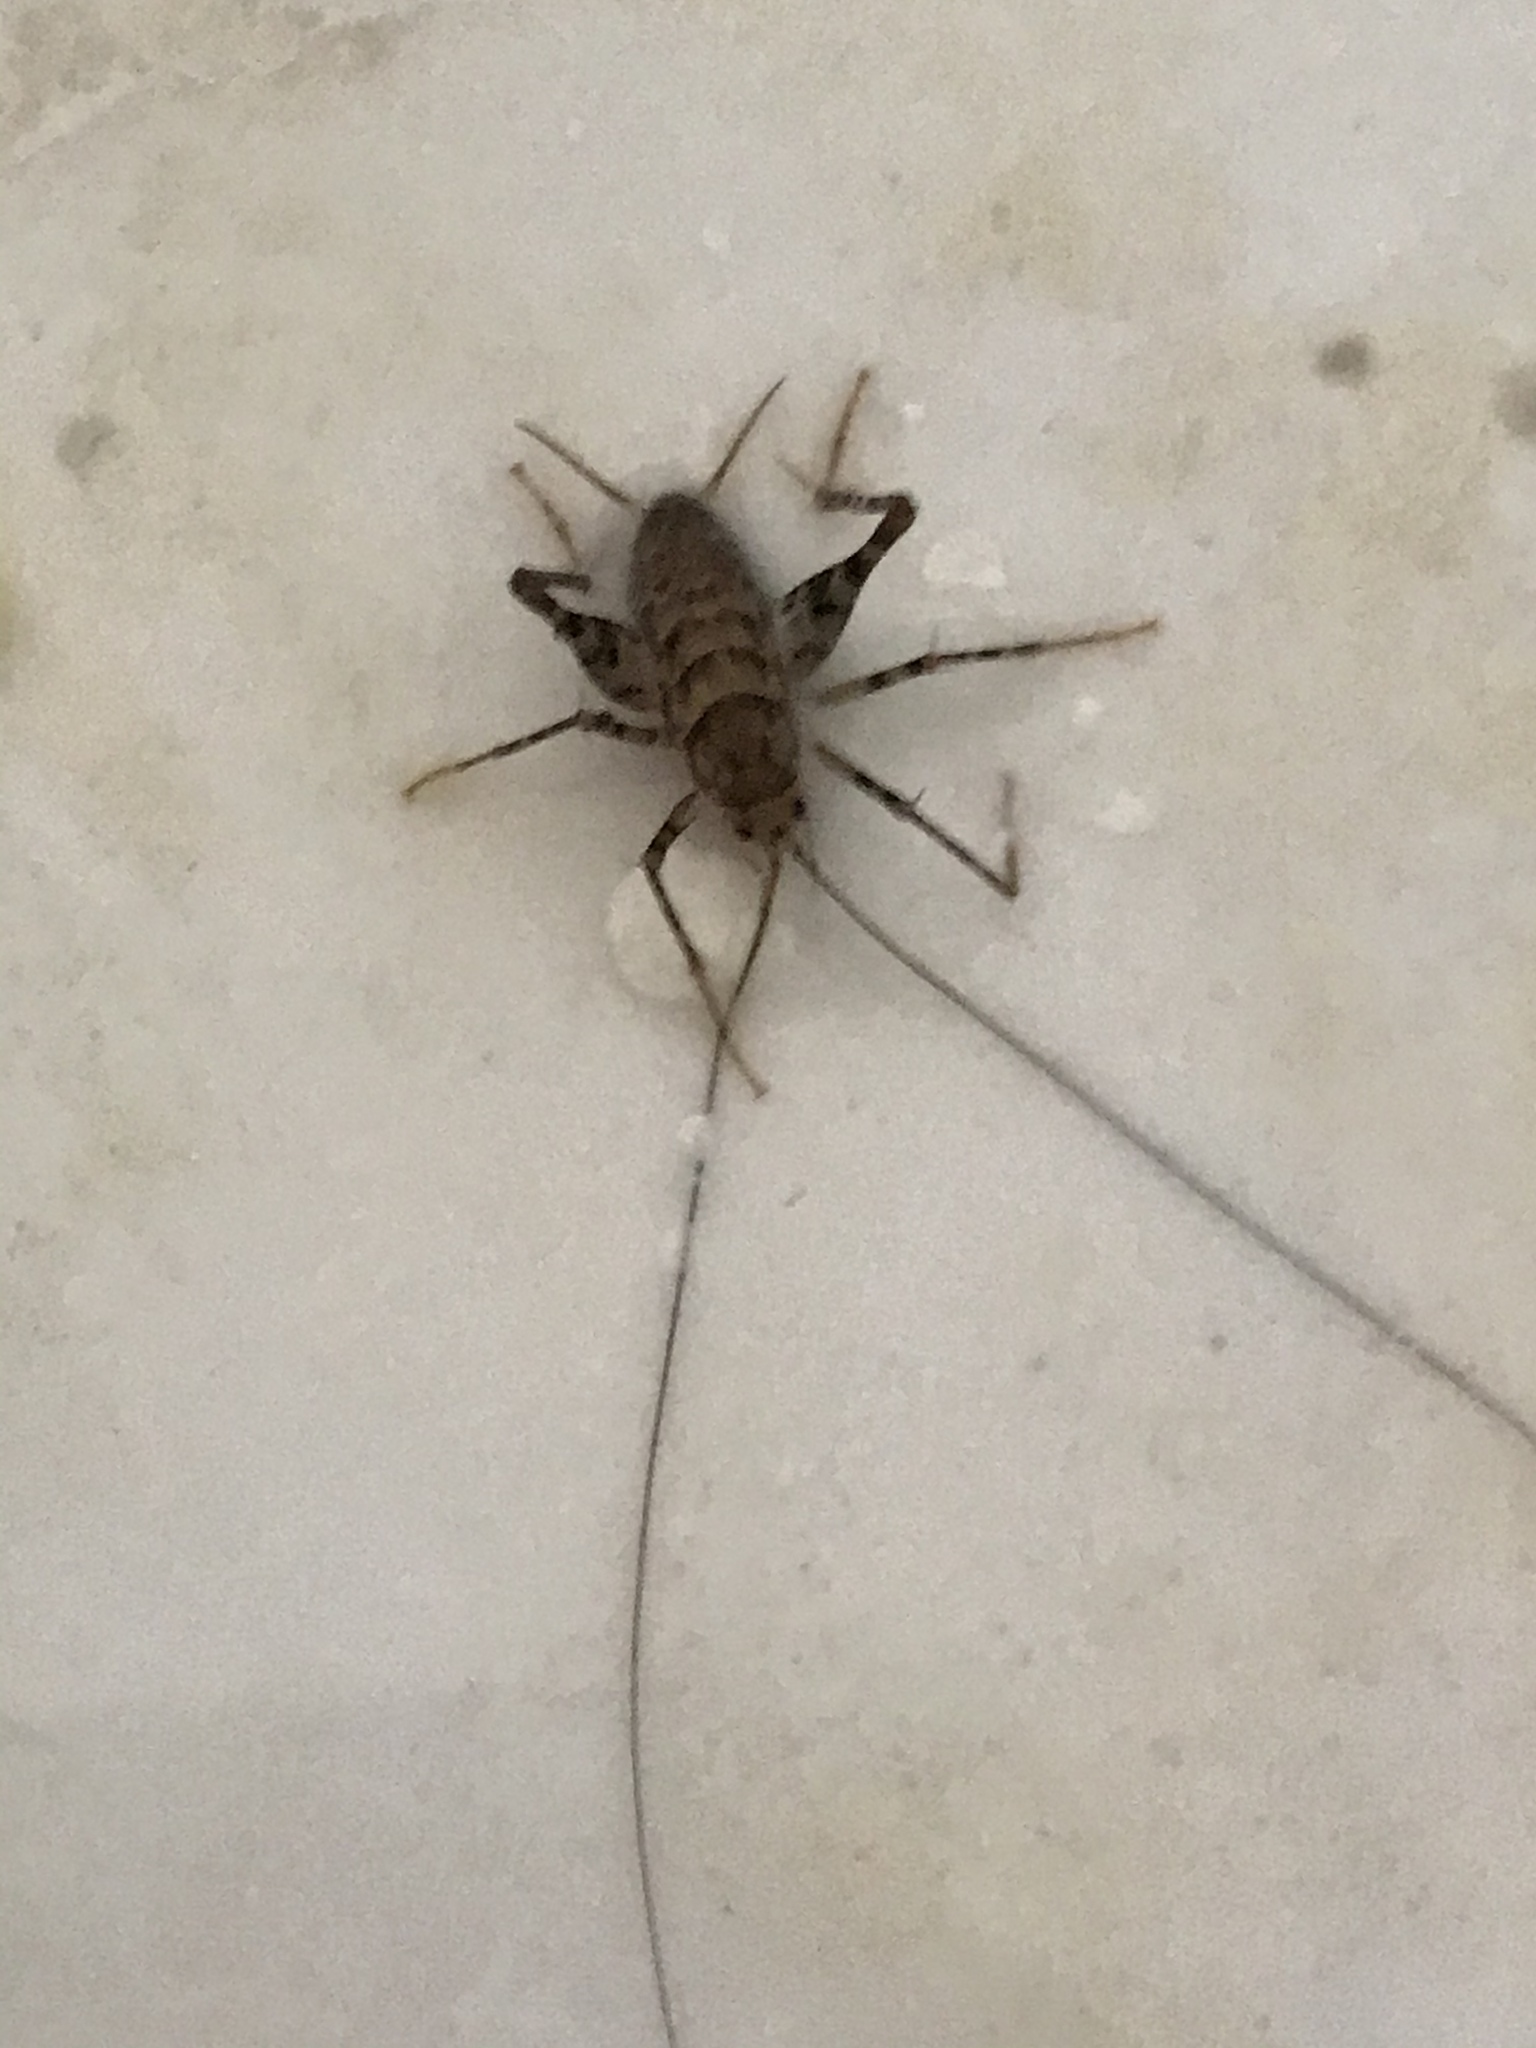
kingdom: Animalia
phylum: Arthropoda
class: Insecta
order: Orthoptera
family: Rhaphidophoridae
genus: Tachycines
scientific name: Tachycines asynamorus
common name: Greenhouse camel cricket
